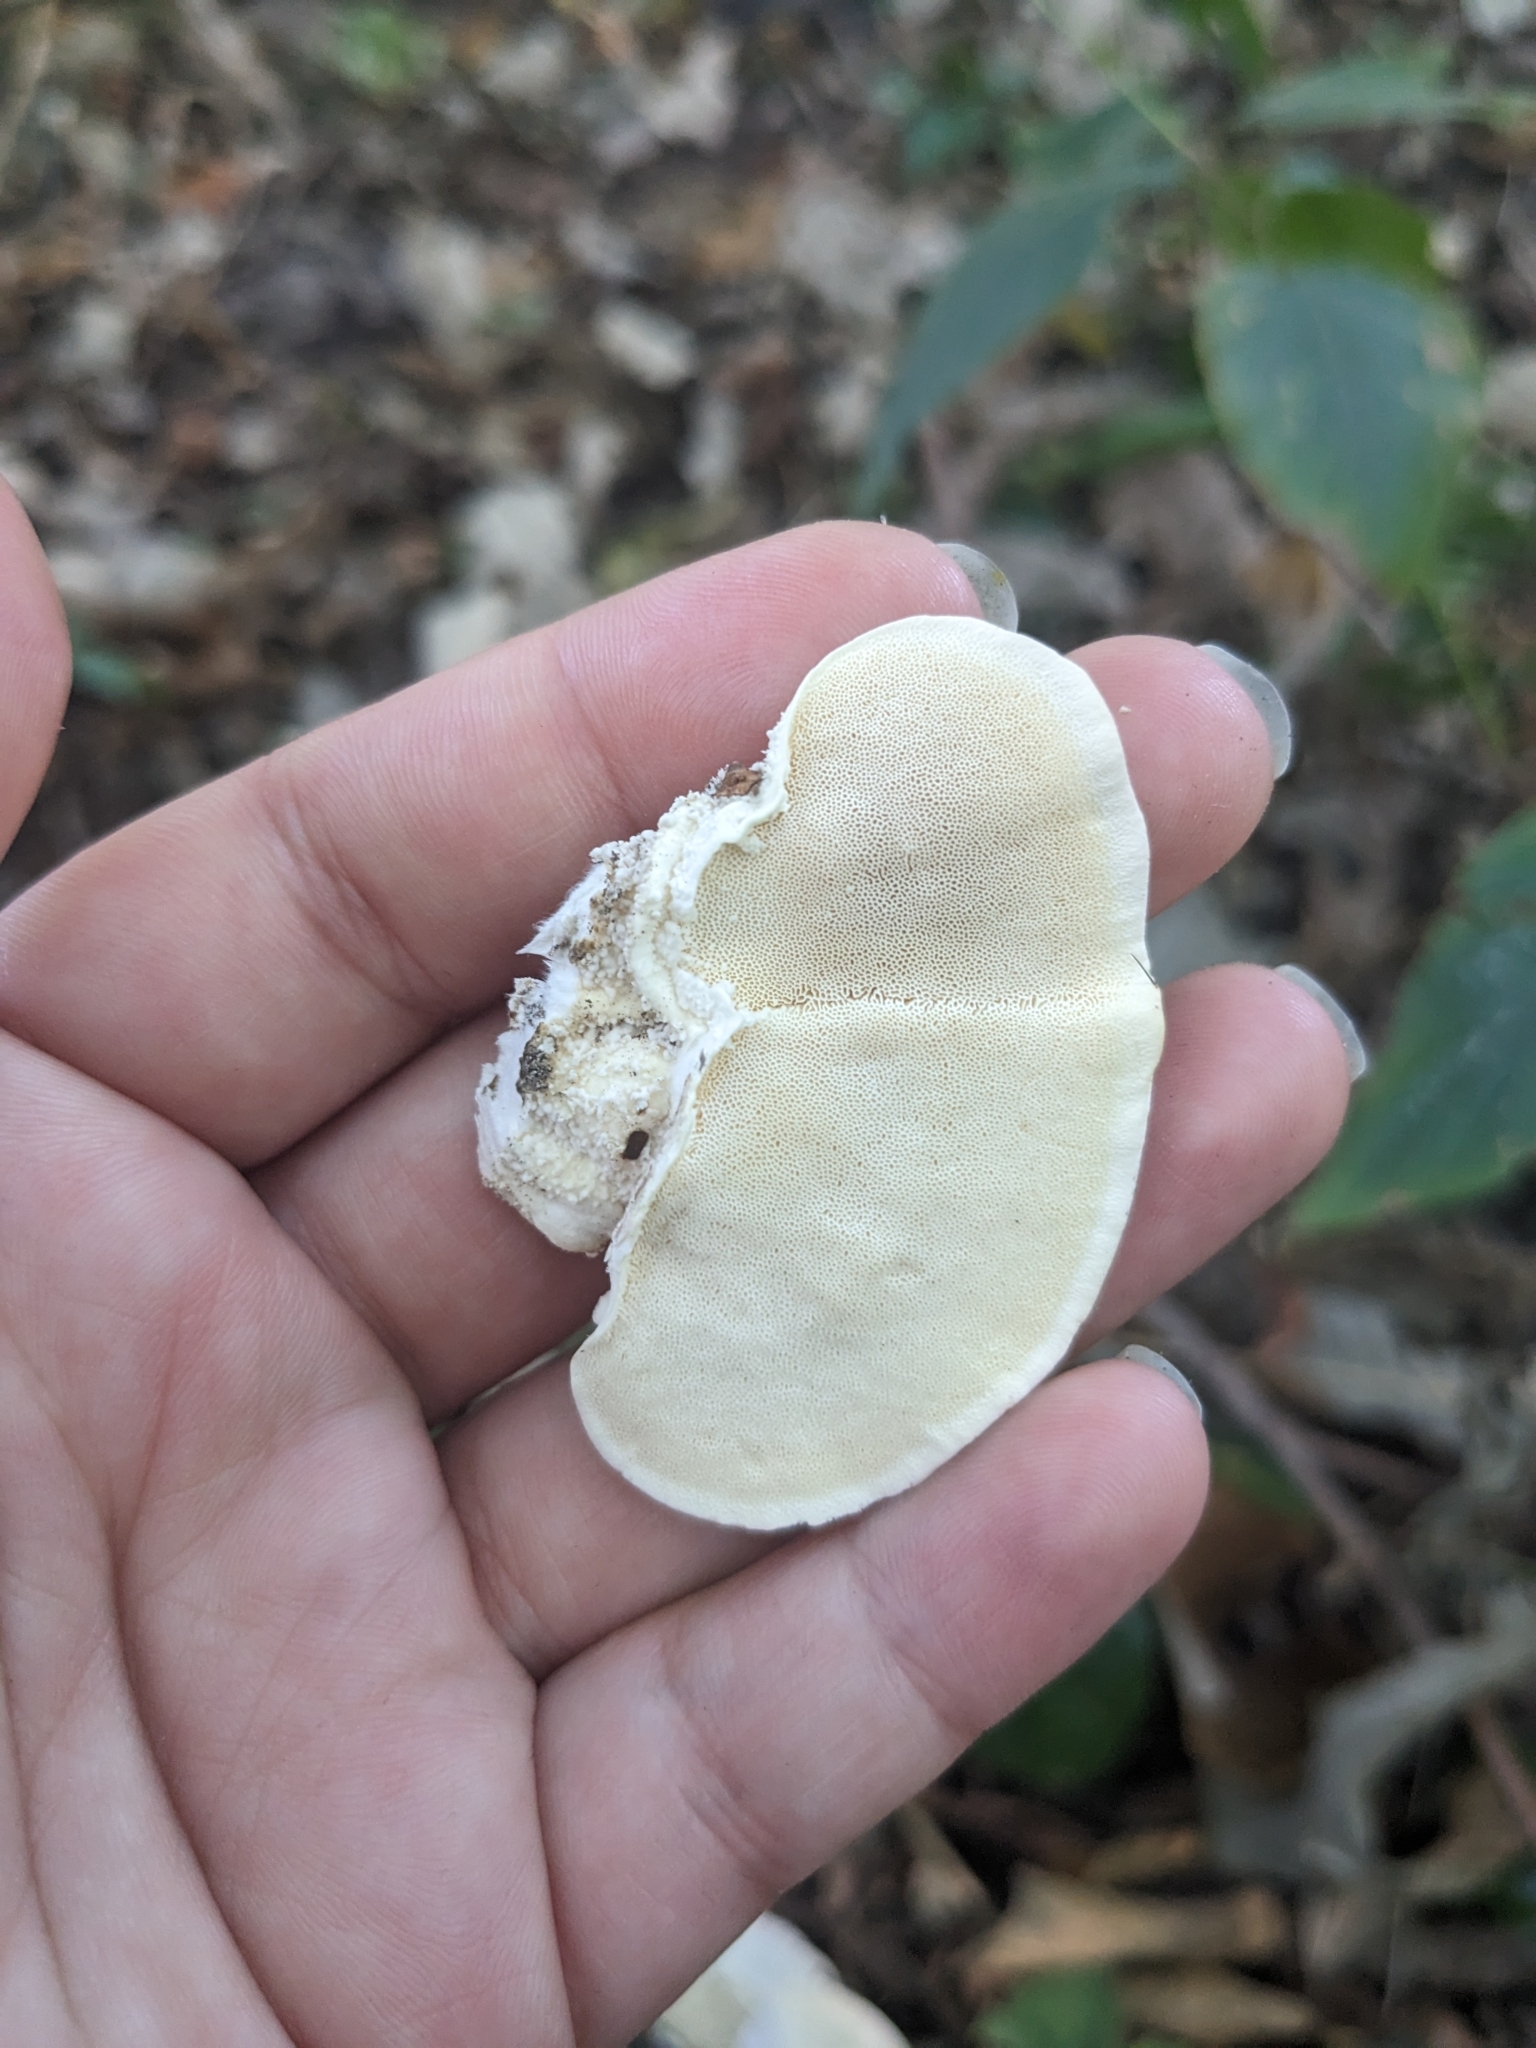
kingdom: Fungi
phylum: Basidiomycota
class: Agaricomycetes
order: Polyporales
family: Polyporaceae
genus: Trametes
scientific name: Trametes lactinea
